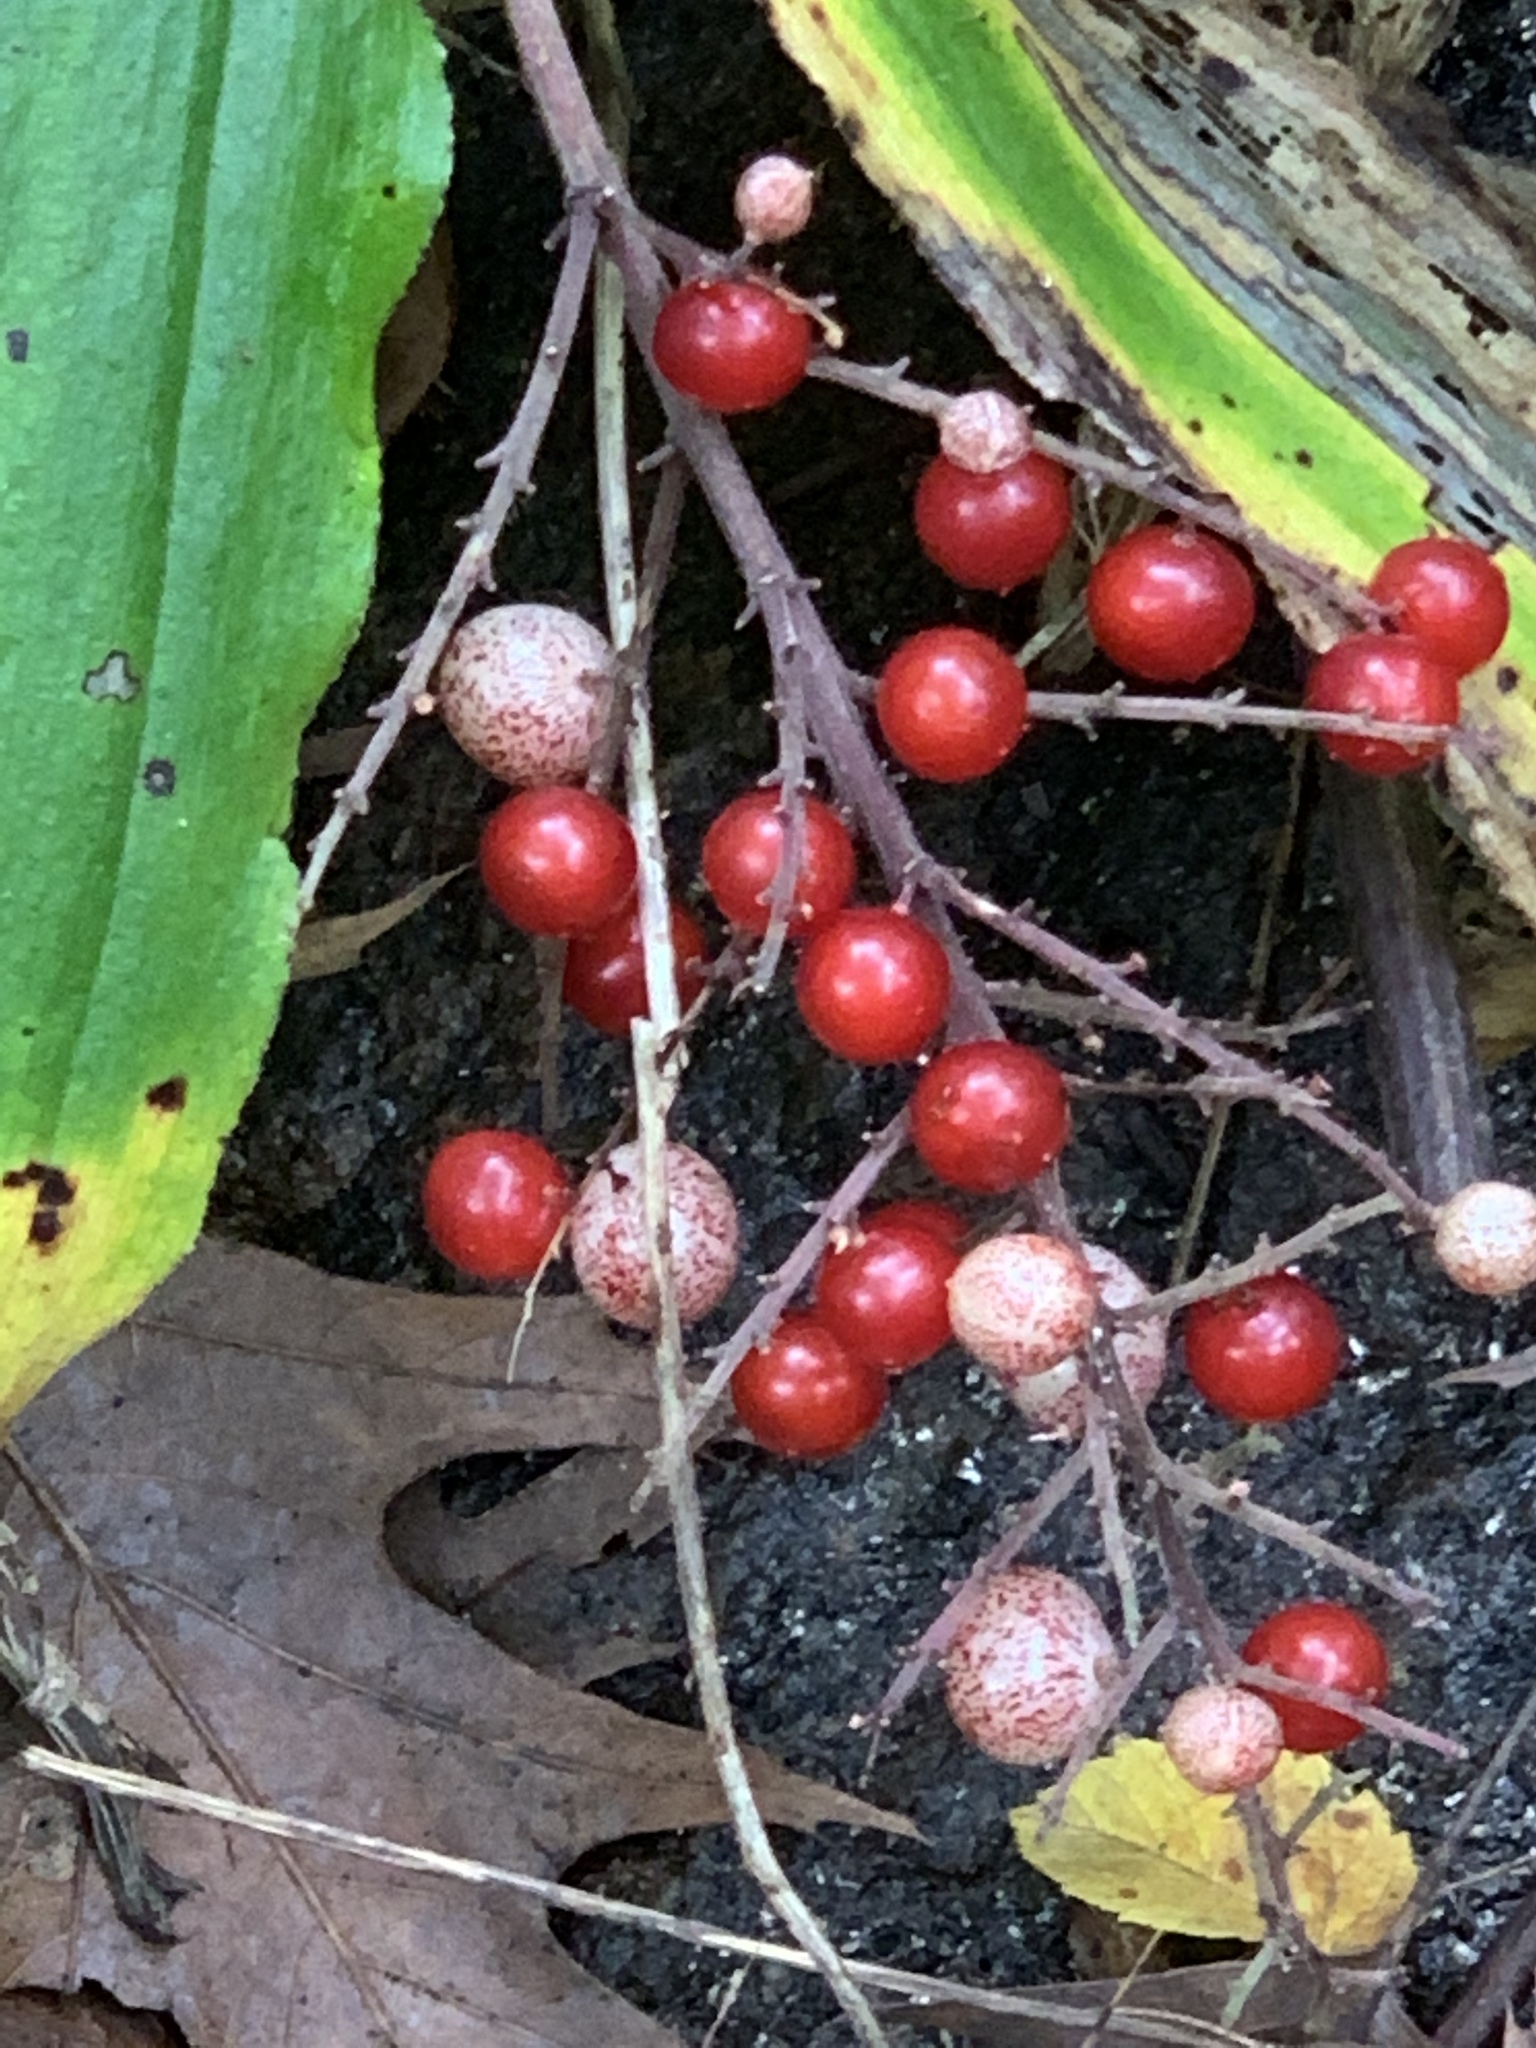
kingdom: Plantae
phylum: Tracheophyta
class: Liliopsida
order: Asparagales
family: Asparagaceae
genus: Maianthemum
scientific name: Maianthemum racemosum
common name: False spikenard
